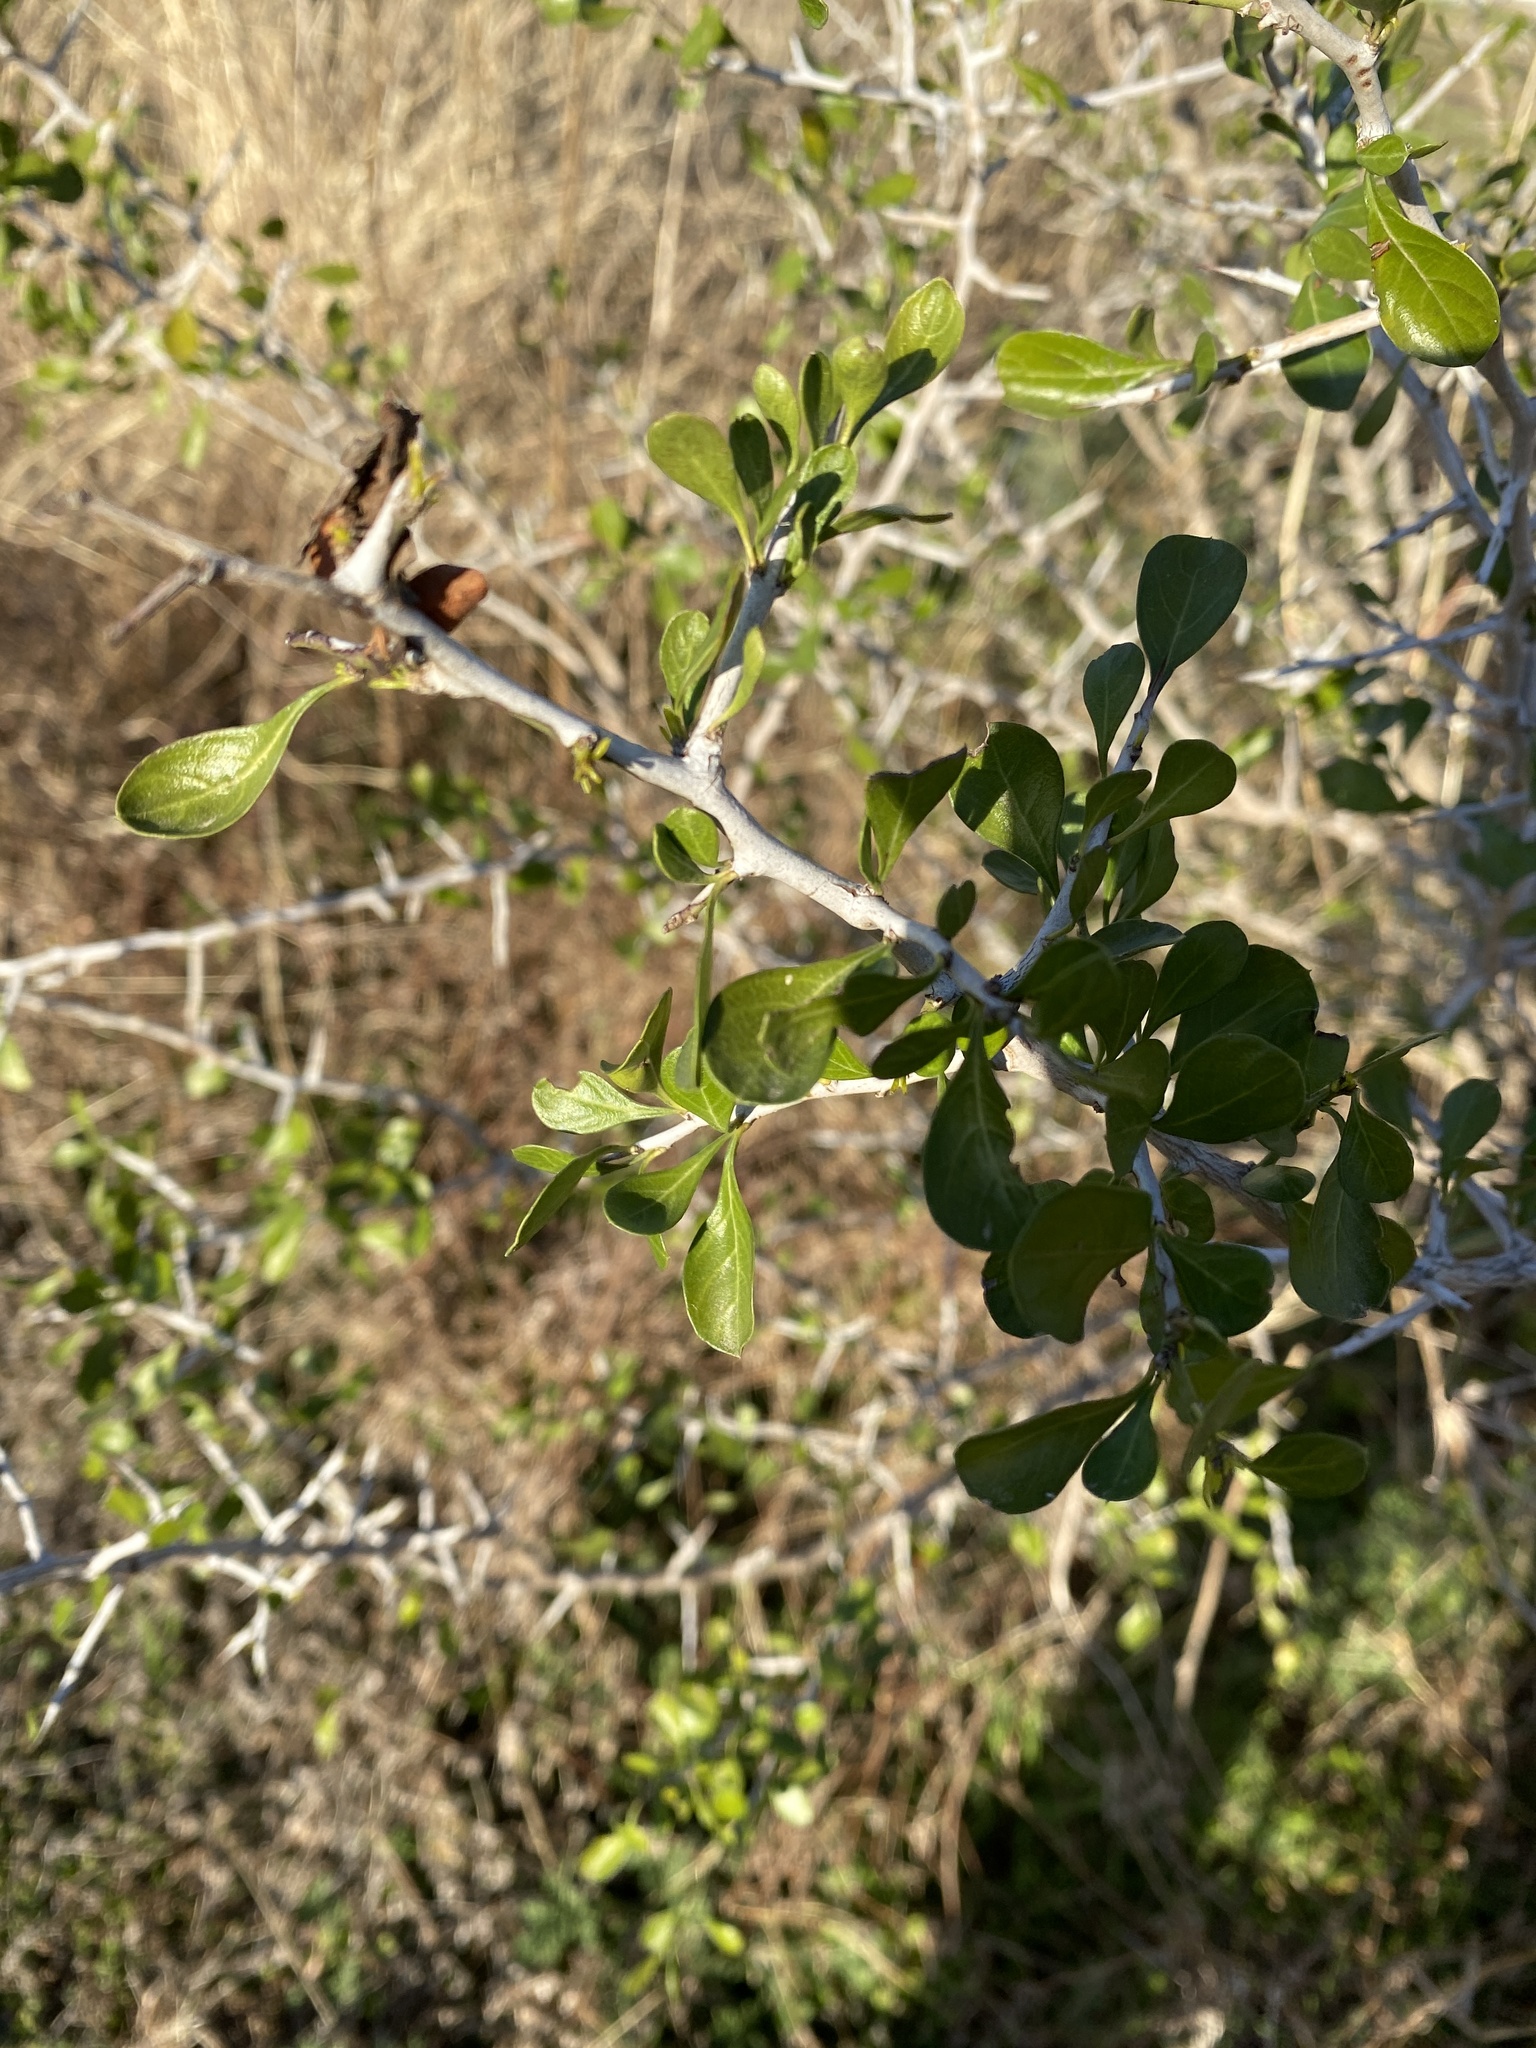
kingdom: Plantae
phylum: Tracheophyta
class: Magnoliopsida
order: Rosales
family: Rhamnaceae
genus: Condalia
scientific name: Condalia hookeri
